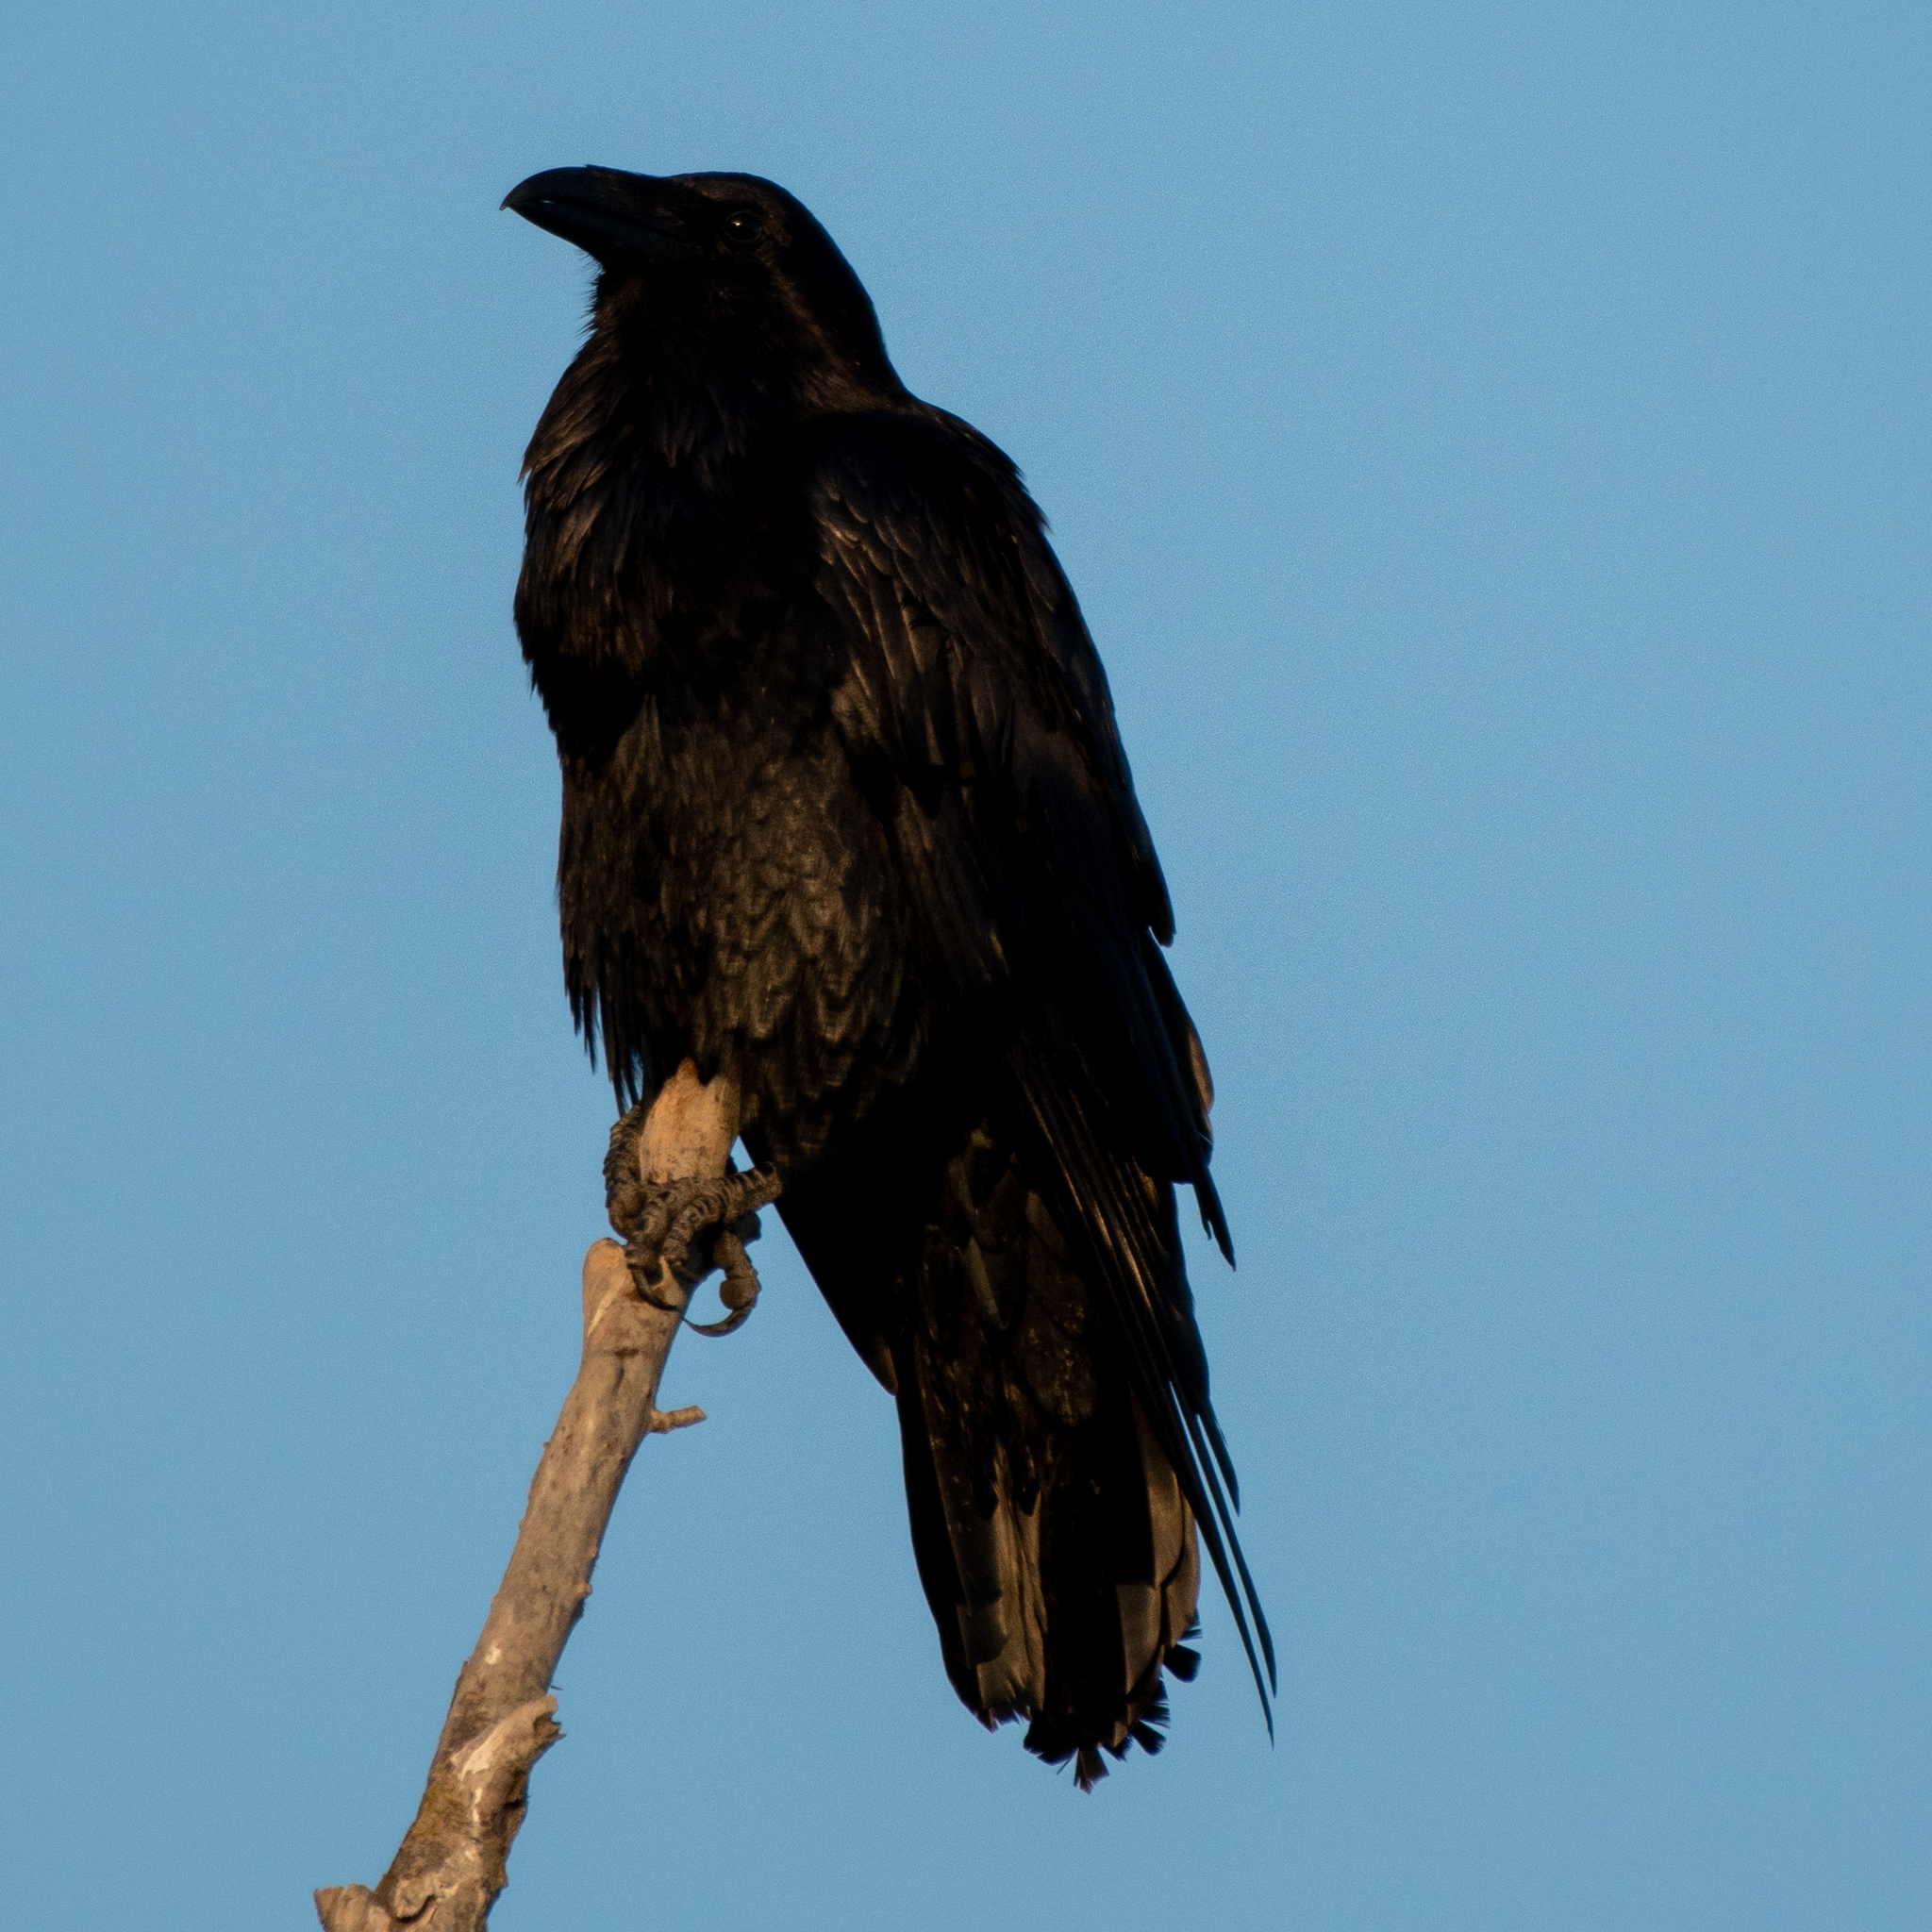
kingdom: Animalia
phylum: Chordata
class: Aves
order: Passeriformes
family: Corvidae
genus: Corvus
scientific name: Corvus corax
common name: Common raven
